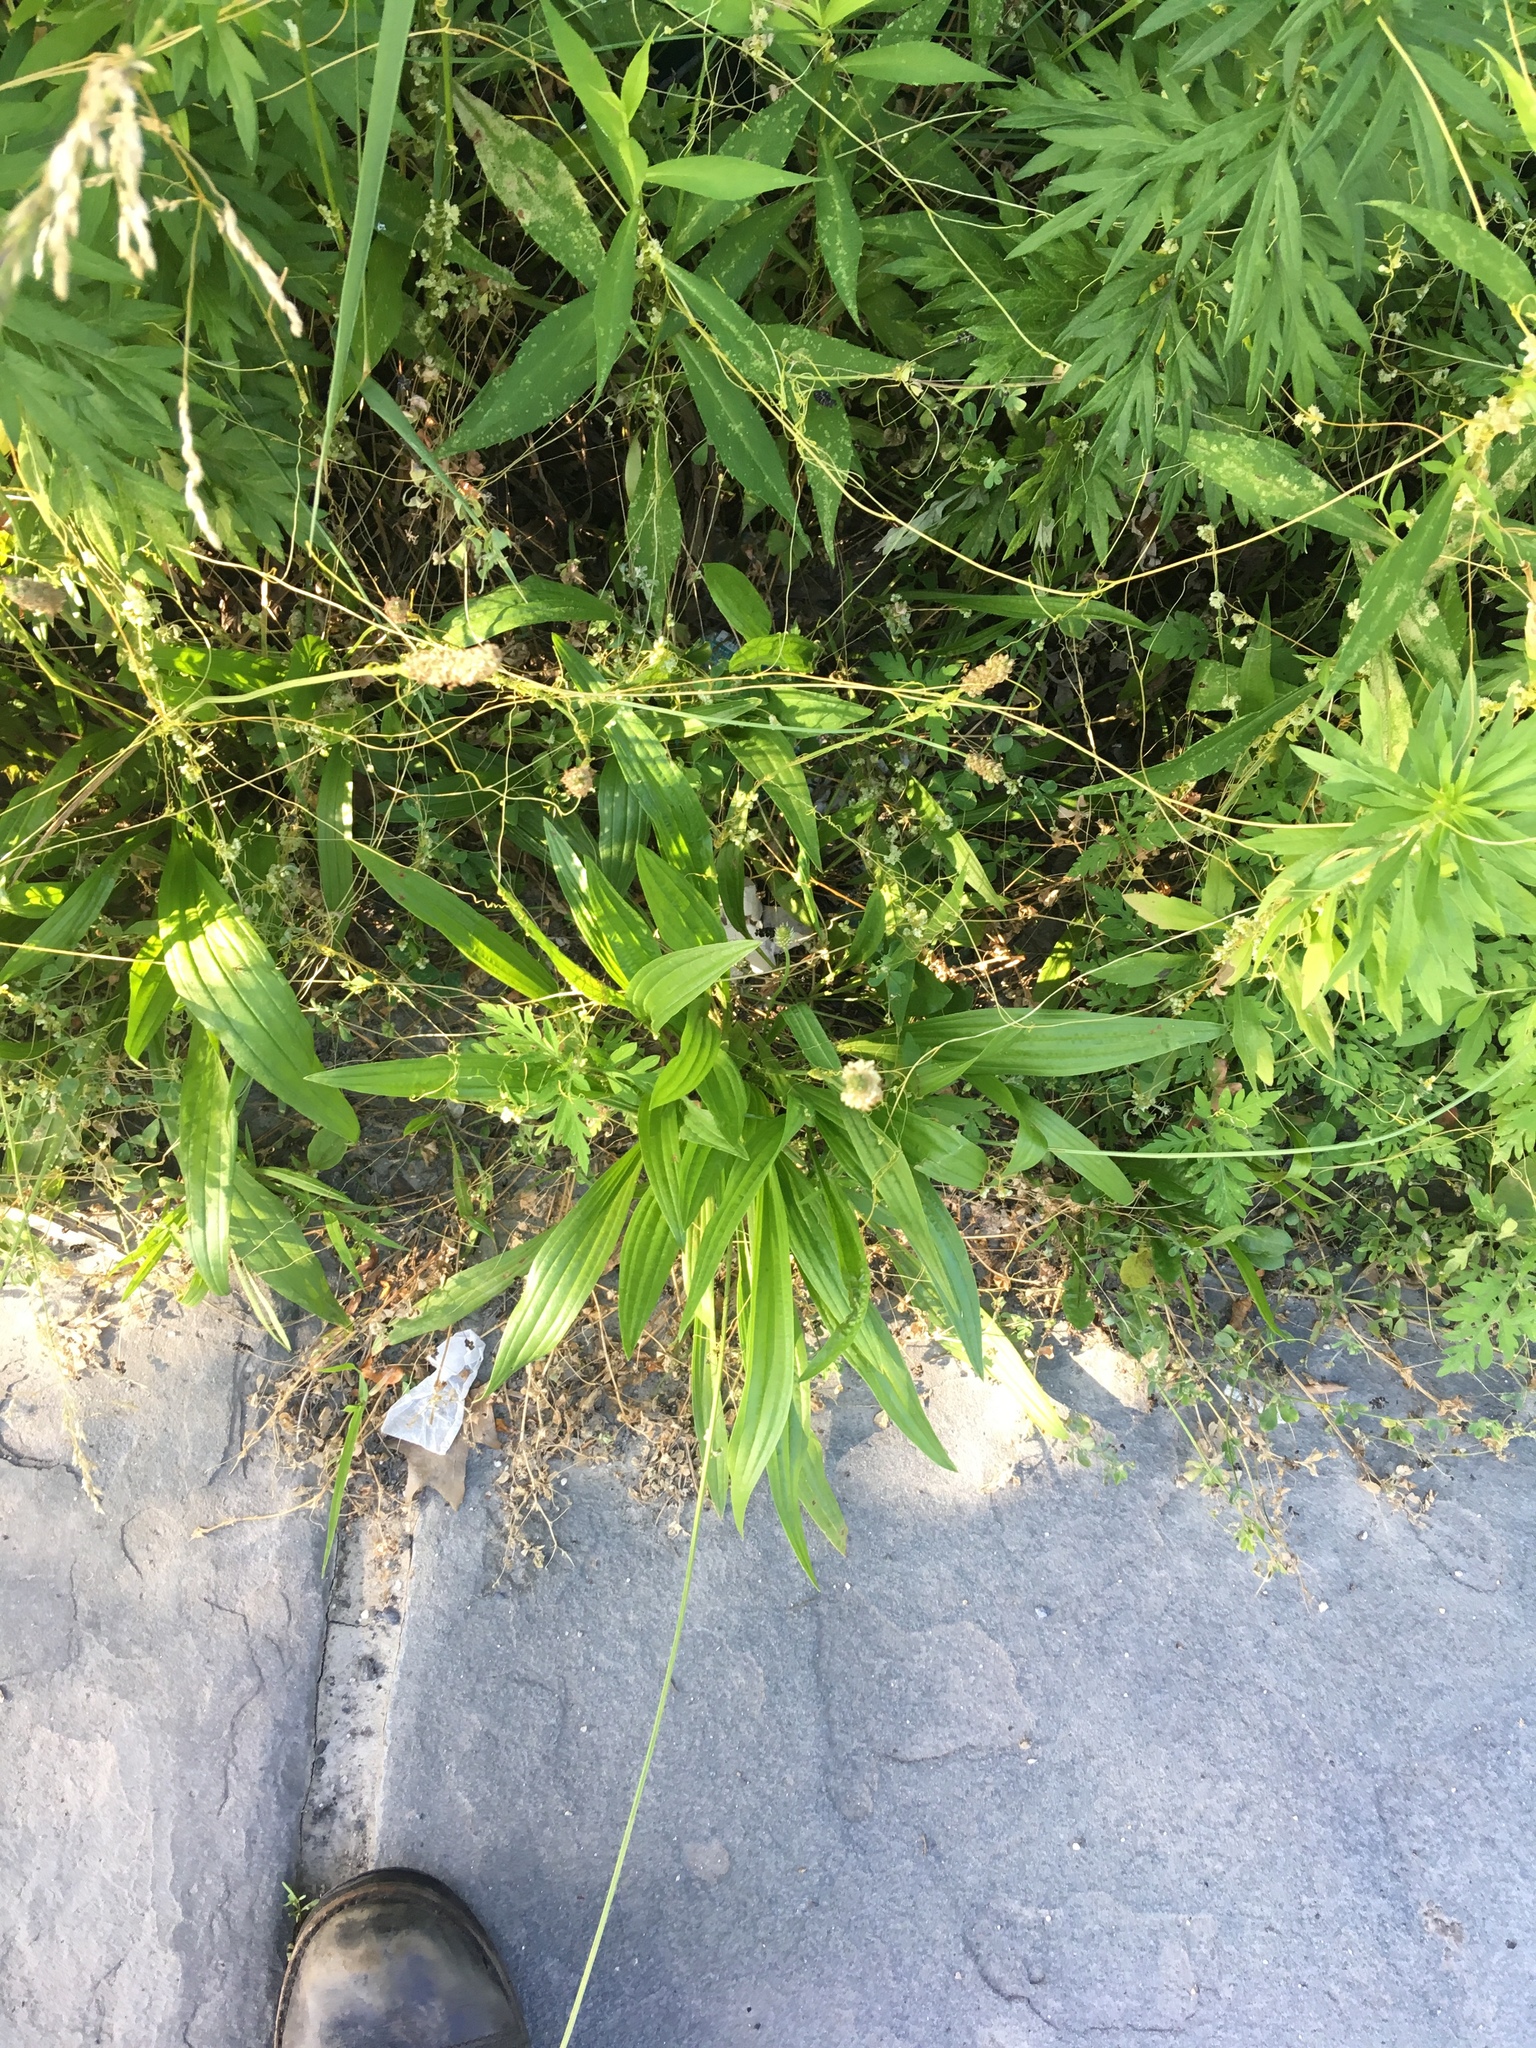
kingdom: Plantae
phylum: Tracheophyta
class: Magnoliopsida
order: Lamiales
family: Plantaginaceae
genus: Plantago
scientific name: Plantago lanceolata
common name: Ribwort plantain
